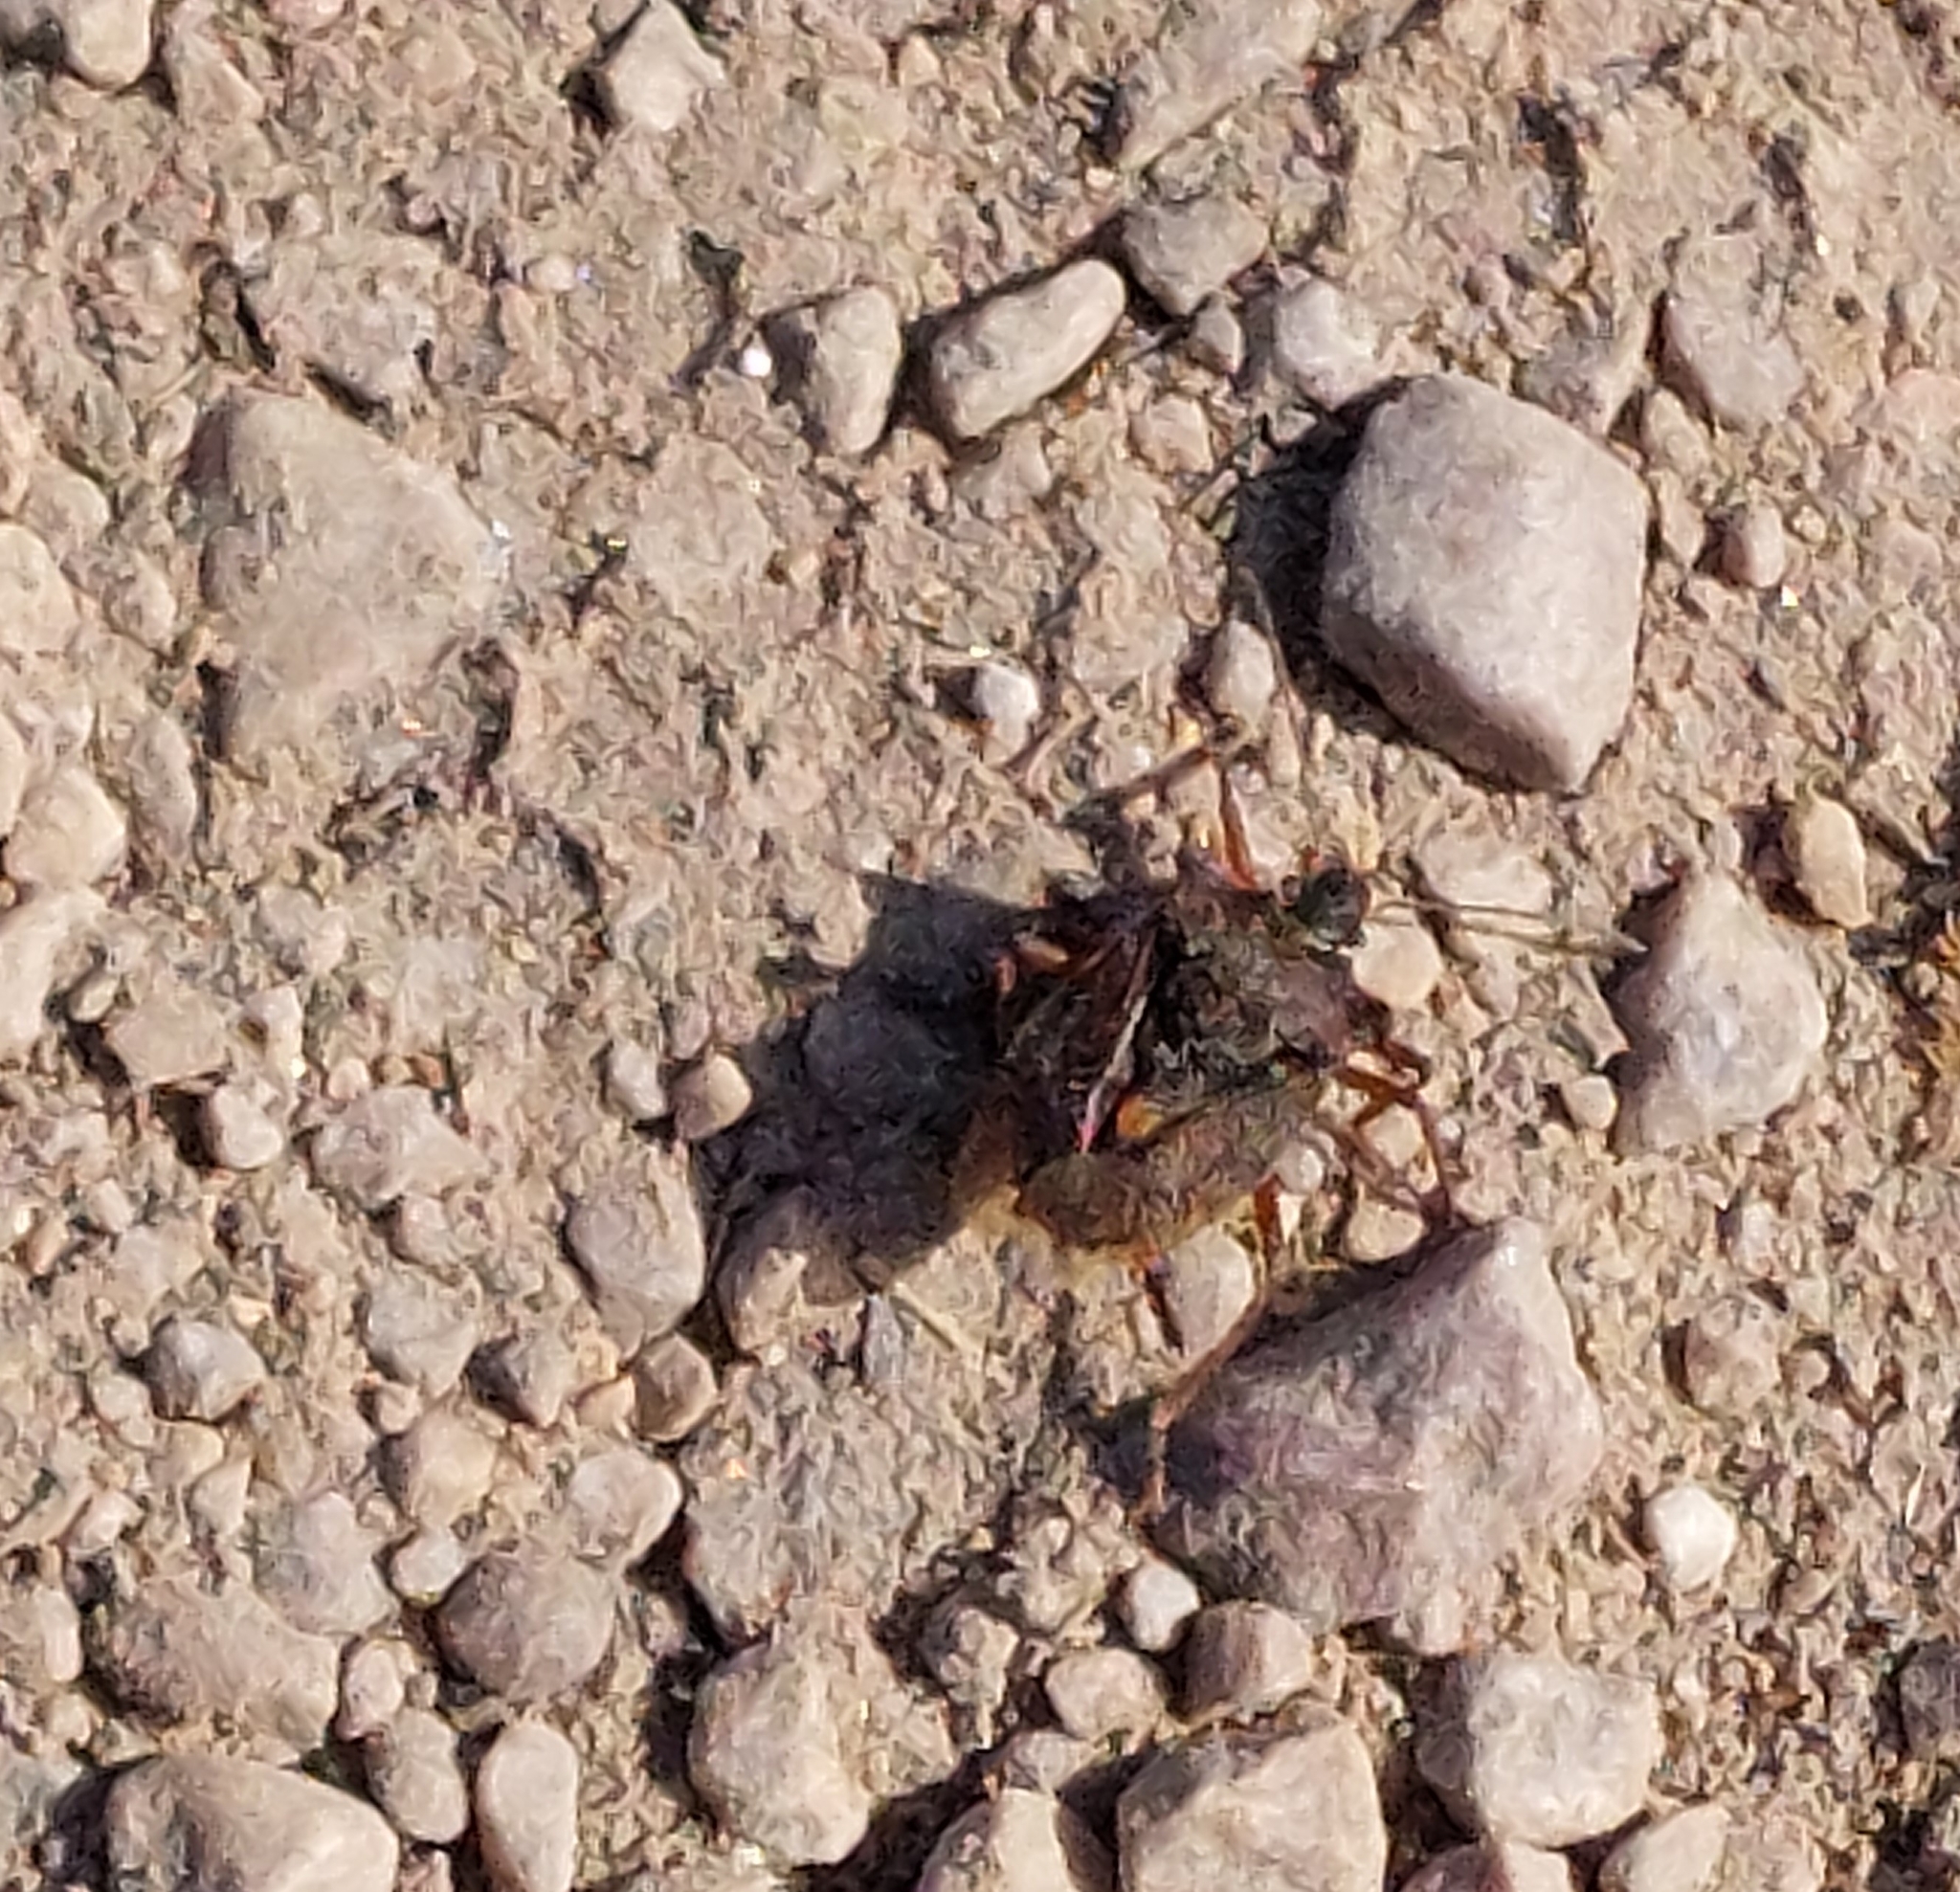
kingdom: Animalia
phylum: Arthropoda
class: Insecta
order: Hemiptera
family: Pentatomidae
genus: Pentatoma
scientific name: Pentatoma rufipes
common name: Forest bug
